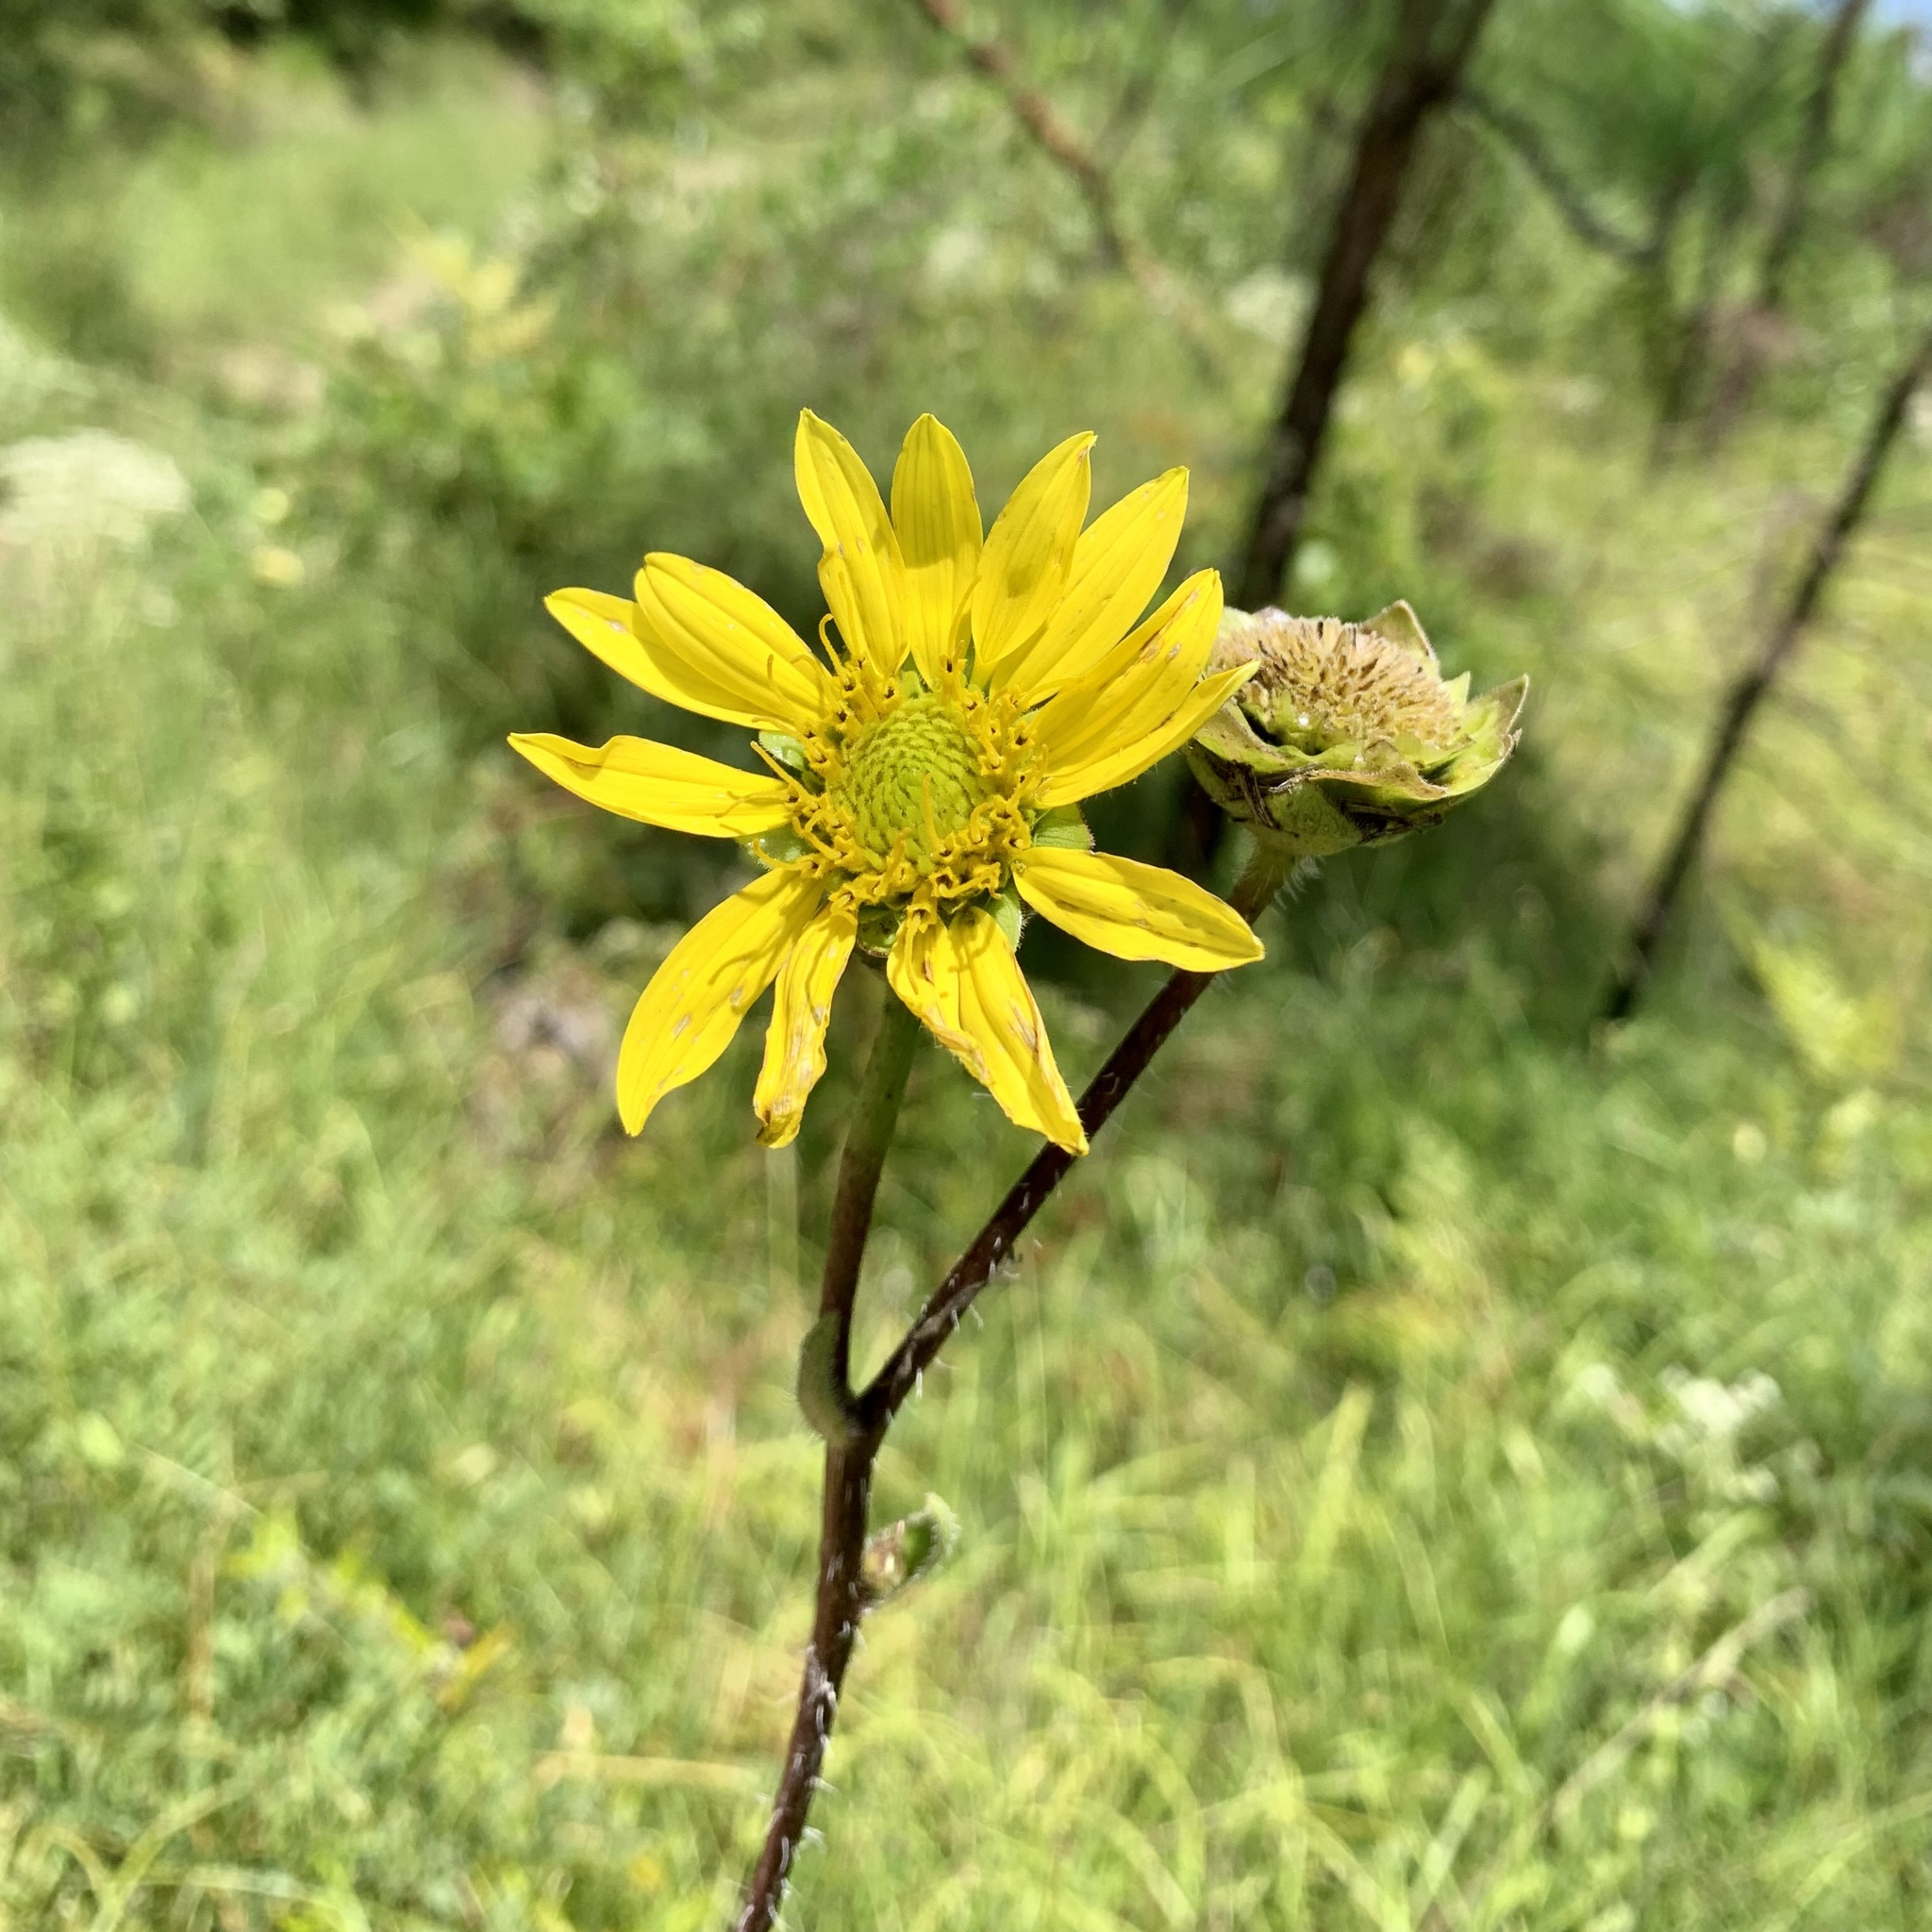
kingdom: Plantae
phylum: Tracheophyta
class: Magnoliopsida
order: Asterales
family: Asteraceae
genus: Silphium
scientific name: Silphium radula
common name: Roughleaf rosinweed
